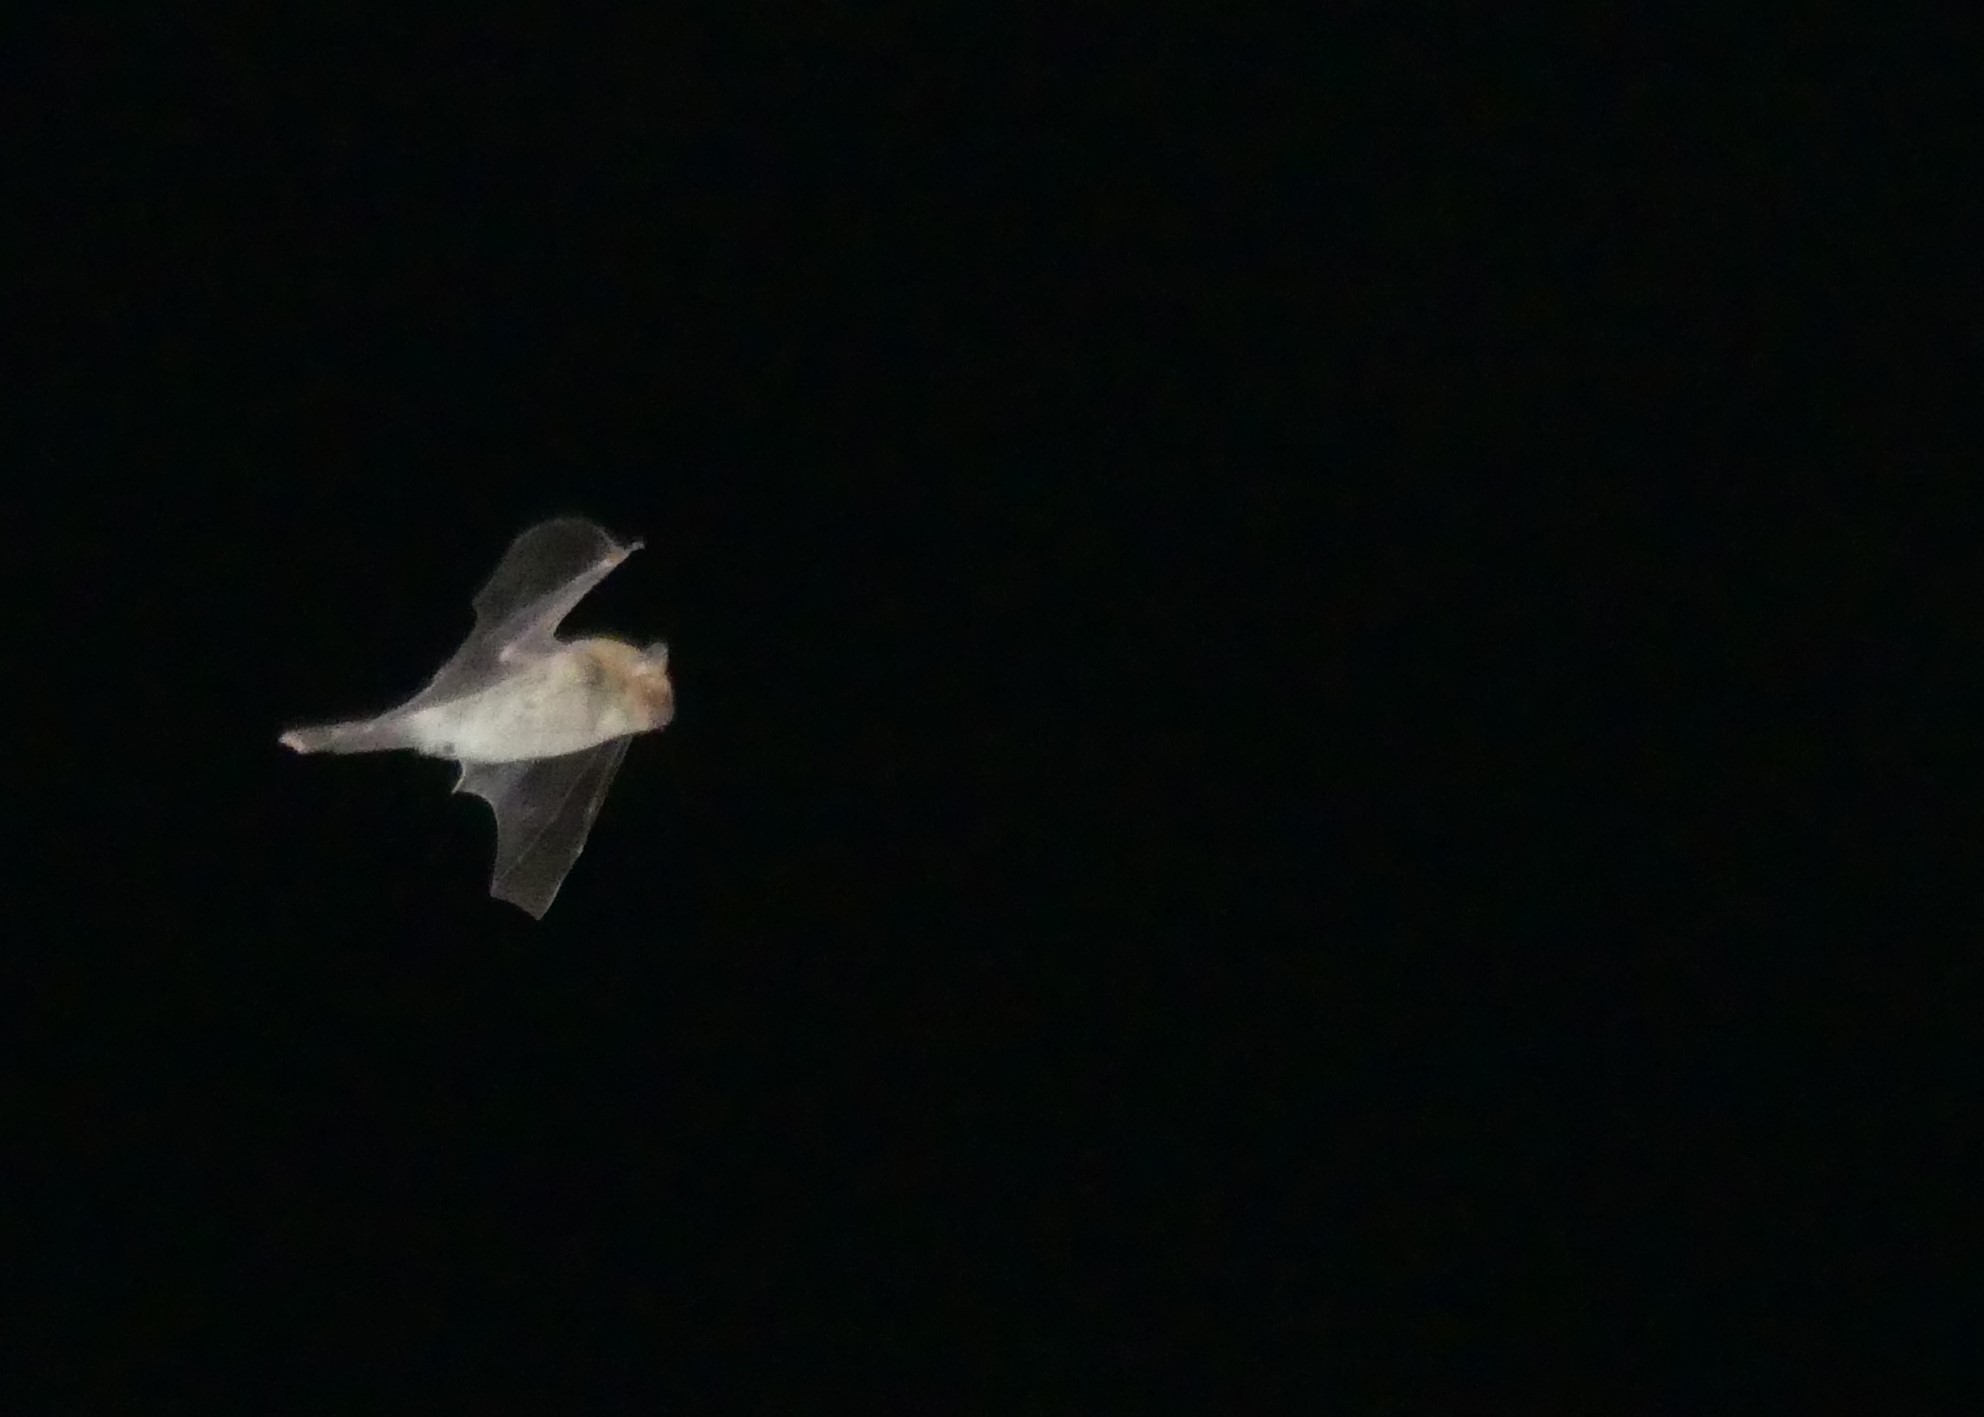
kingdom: Animalia
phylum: Chordata
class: Mammalia
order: Chiroptera
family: Vespertilionidae
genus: Pipistrellus
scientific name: Pipistrellus kuhlii
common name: Kuhl's pipistrelle
